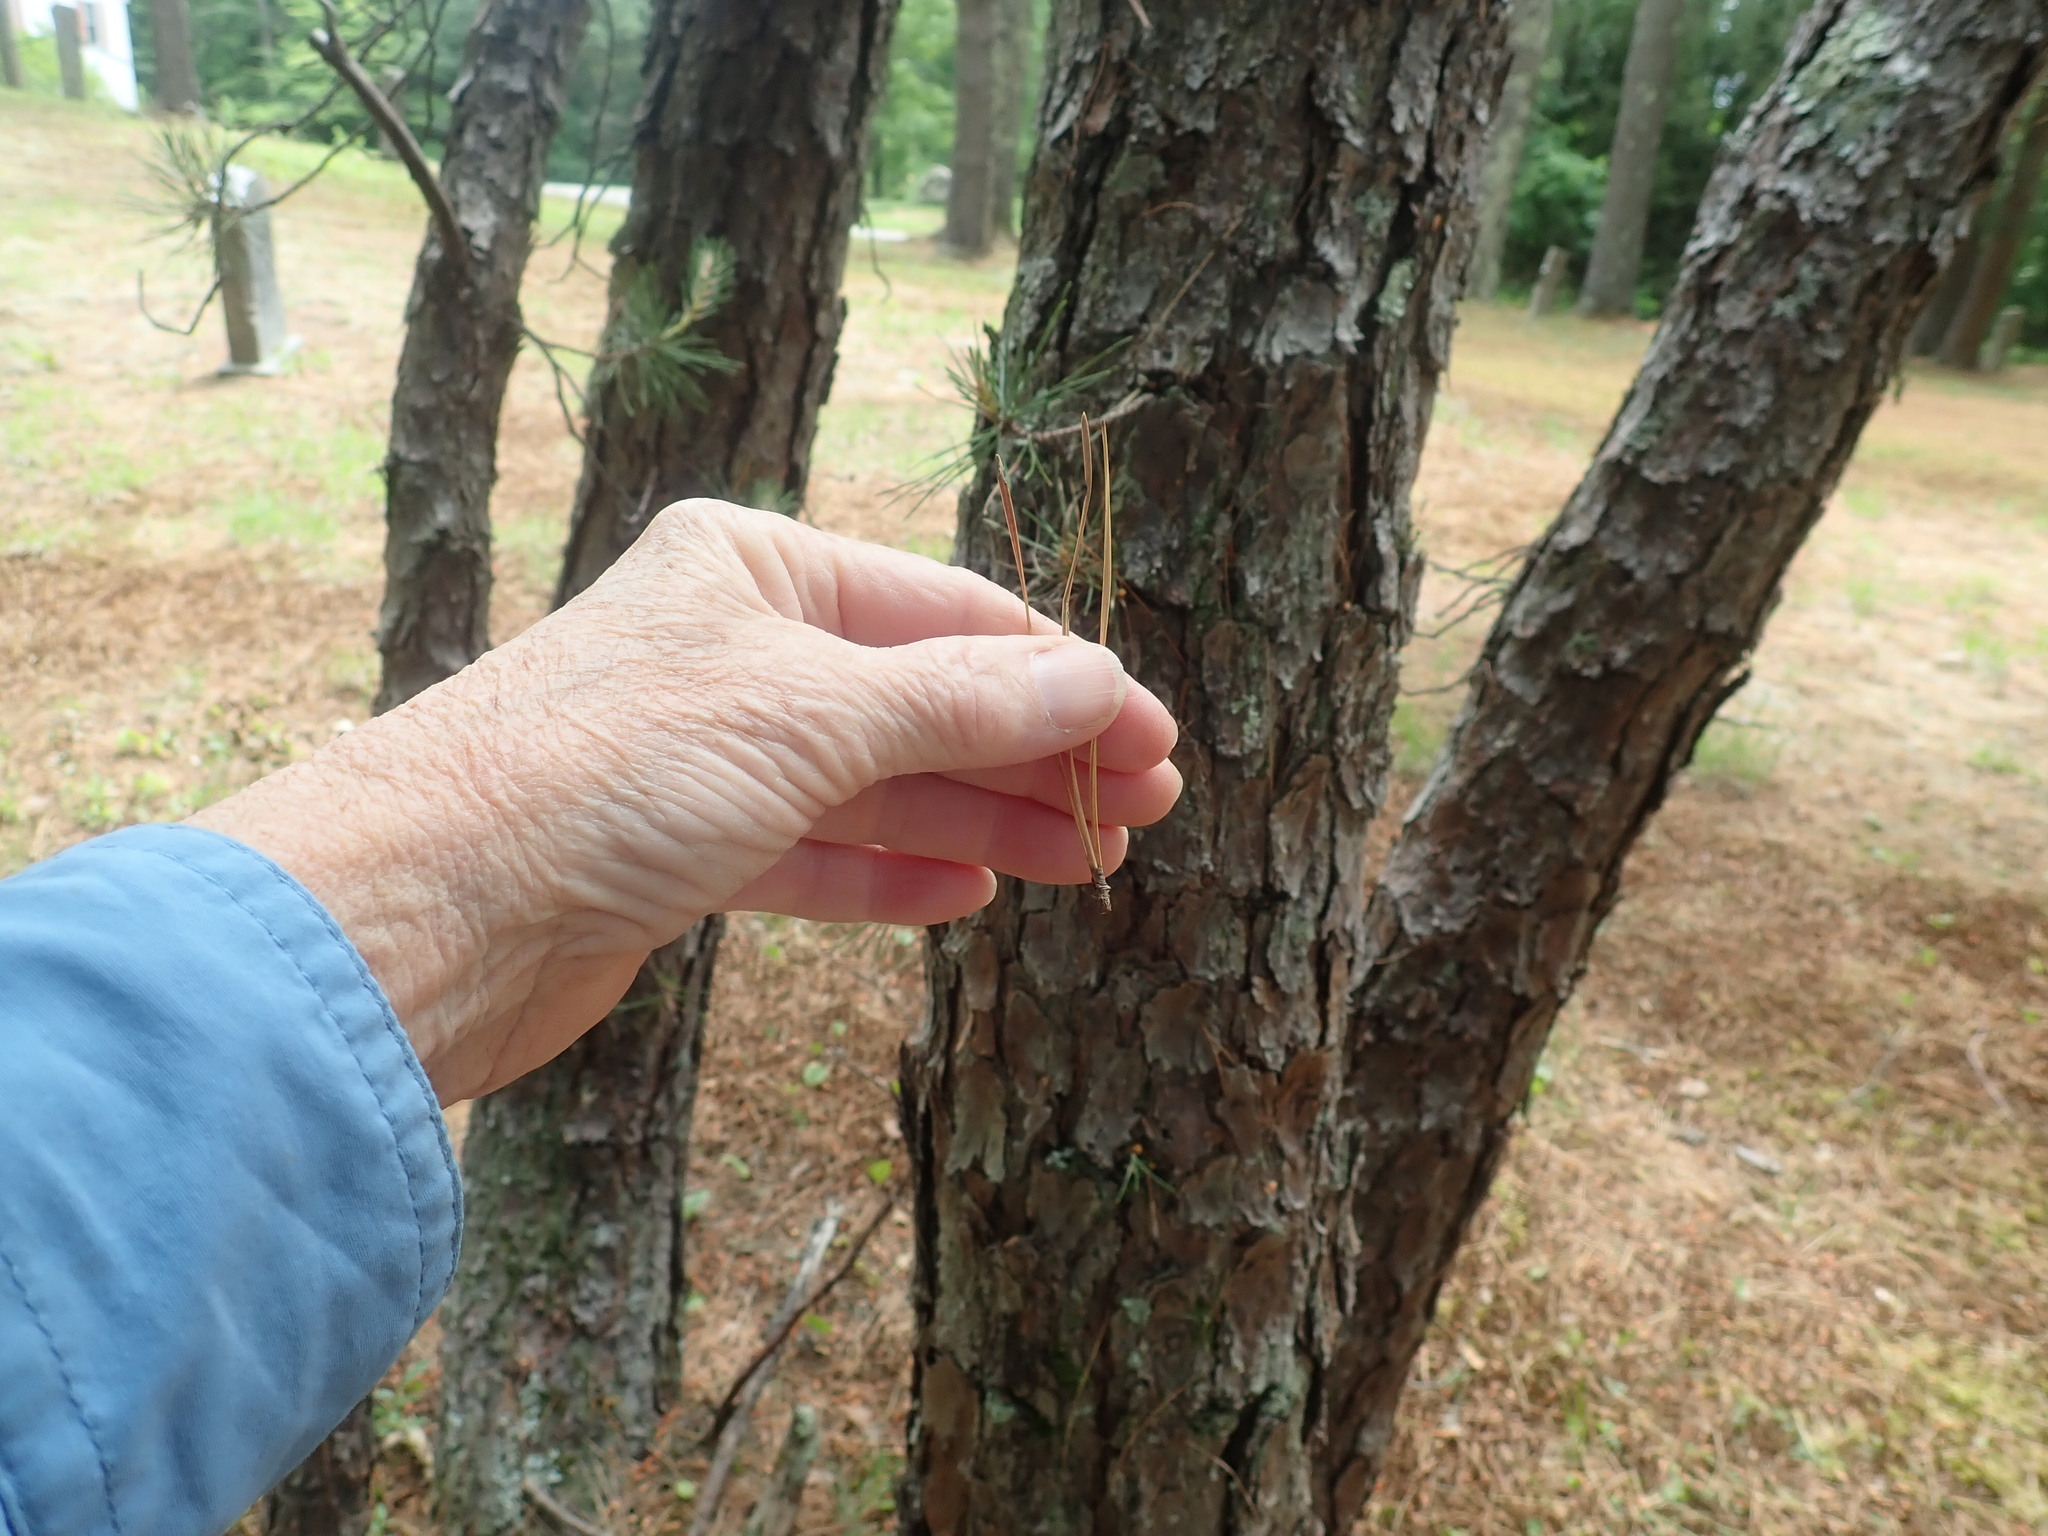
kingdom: Plantae
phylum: Tracheophyta
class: Pinopsida
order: Pinales
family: Pinaceae
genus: Pinus
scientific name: Pinus rigida
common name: Pitch pine
